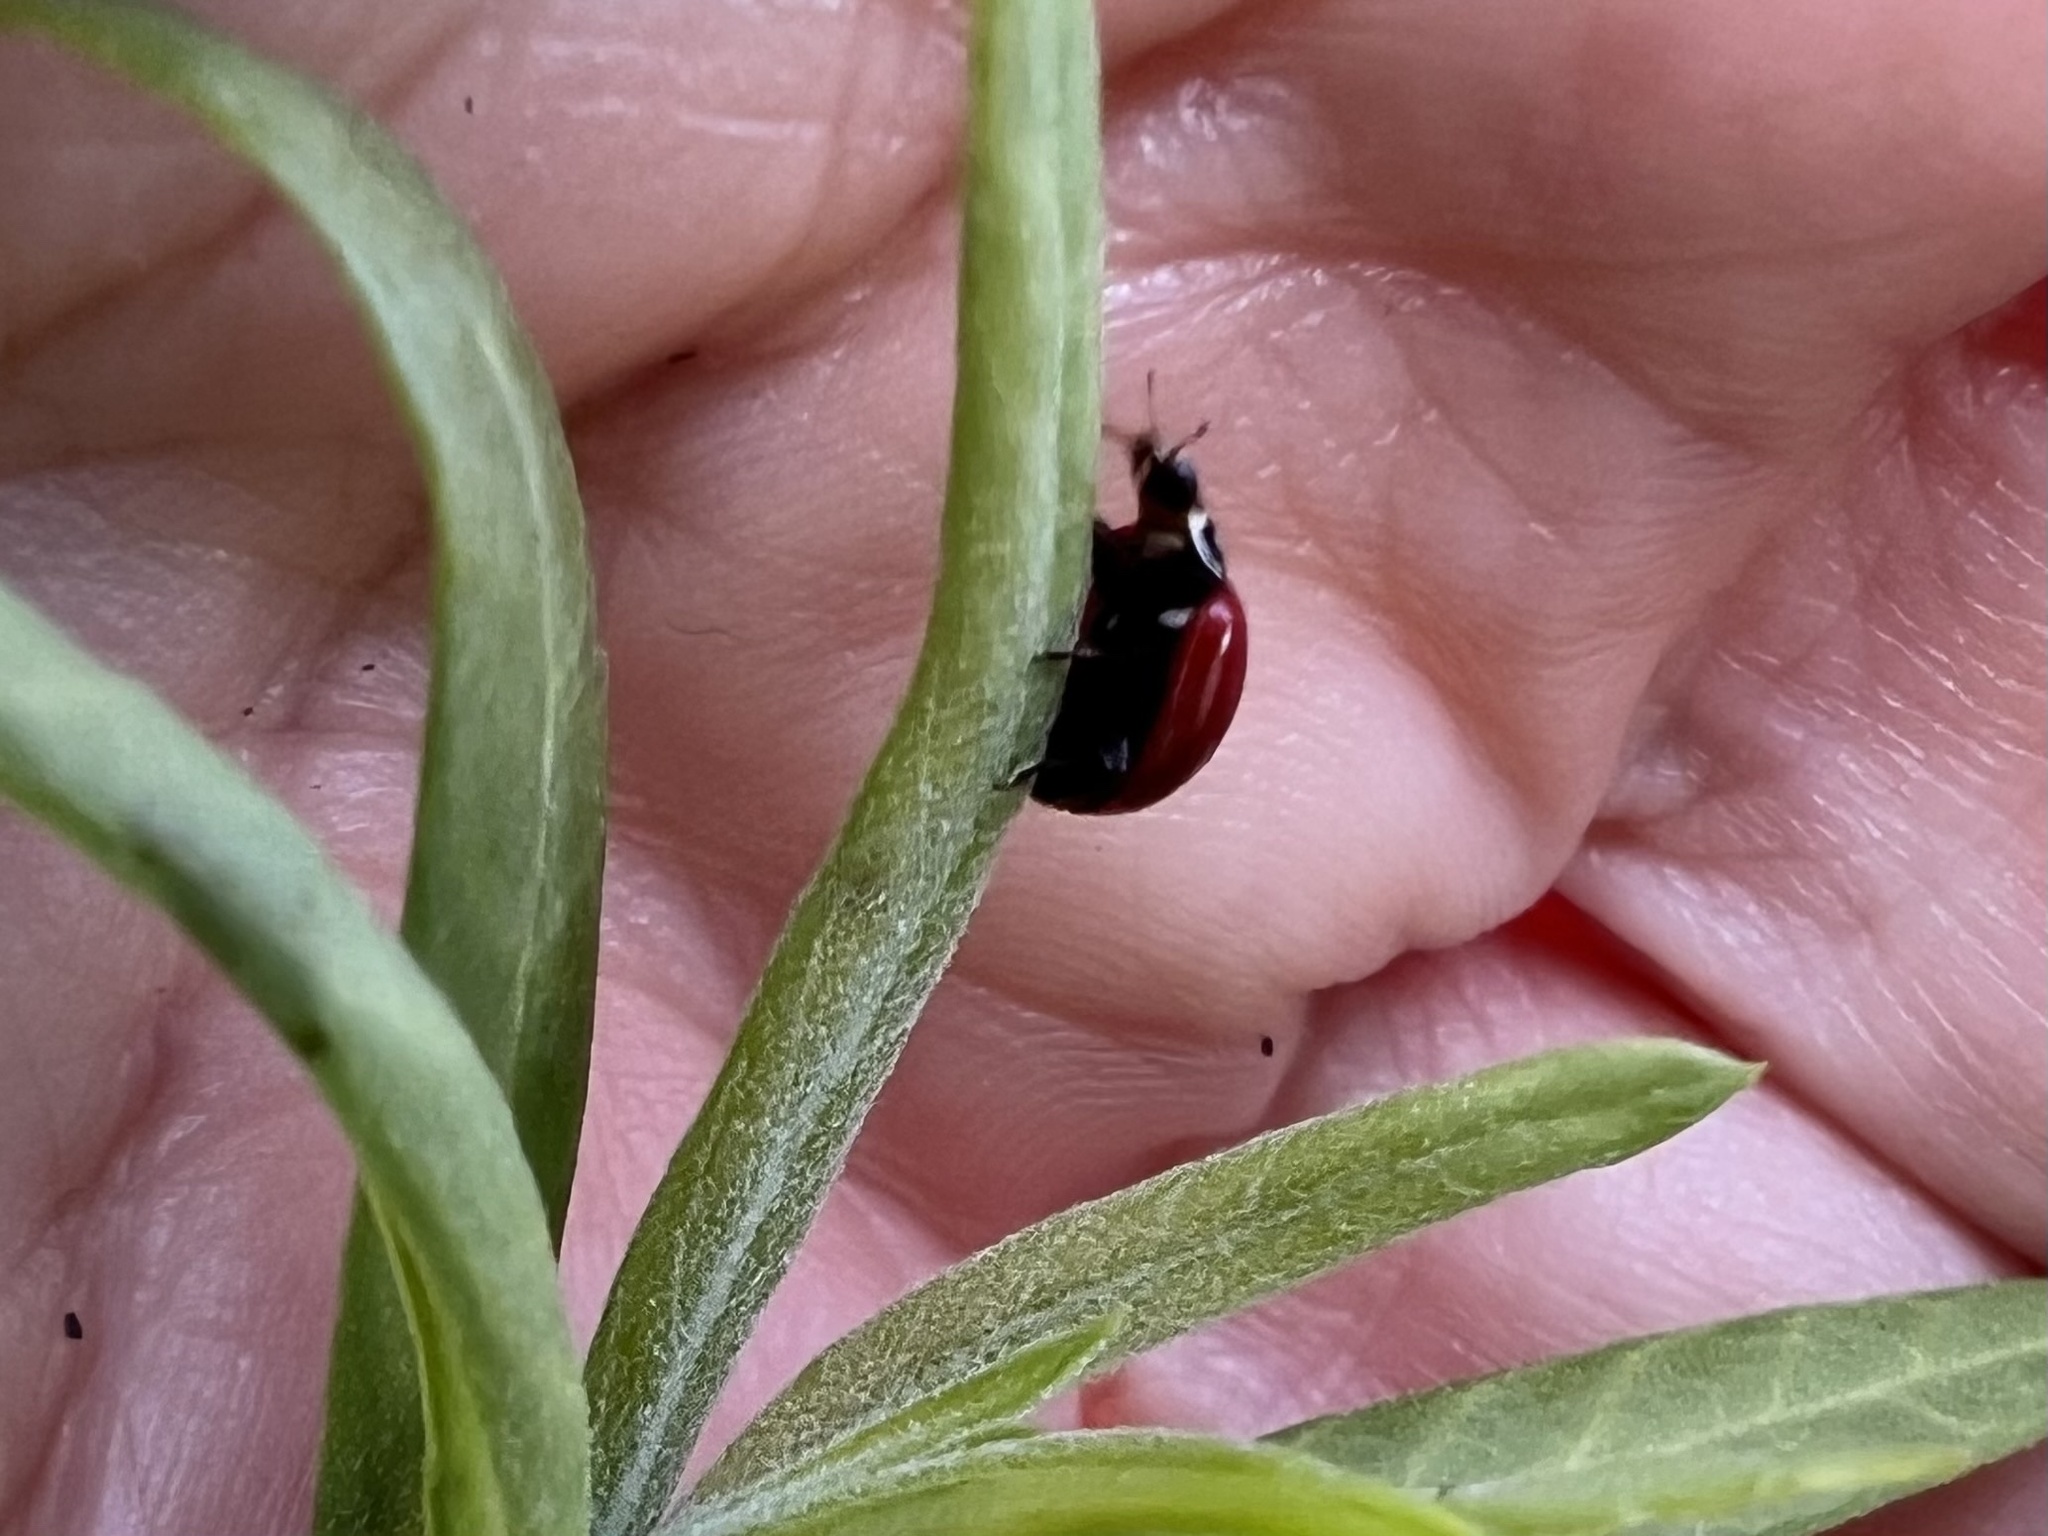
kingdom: Animalia
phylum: Arthropoda
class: Insecta
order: Coleoptera
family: Coccinellidae
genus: Cycloneda
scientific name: Cycloneda sanguinea
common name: Ladybird beetle
